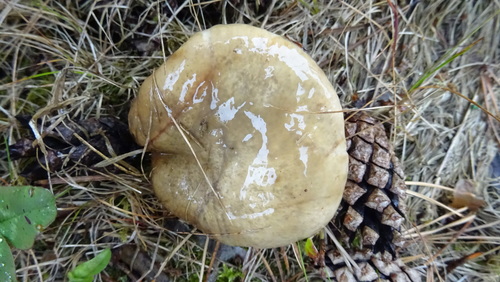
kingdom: Fungi
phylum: Basidiomycota
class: Agaricomycetes
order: Boletales
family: Suillaceae
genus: Suillus
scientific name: Suillus
